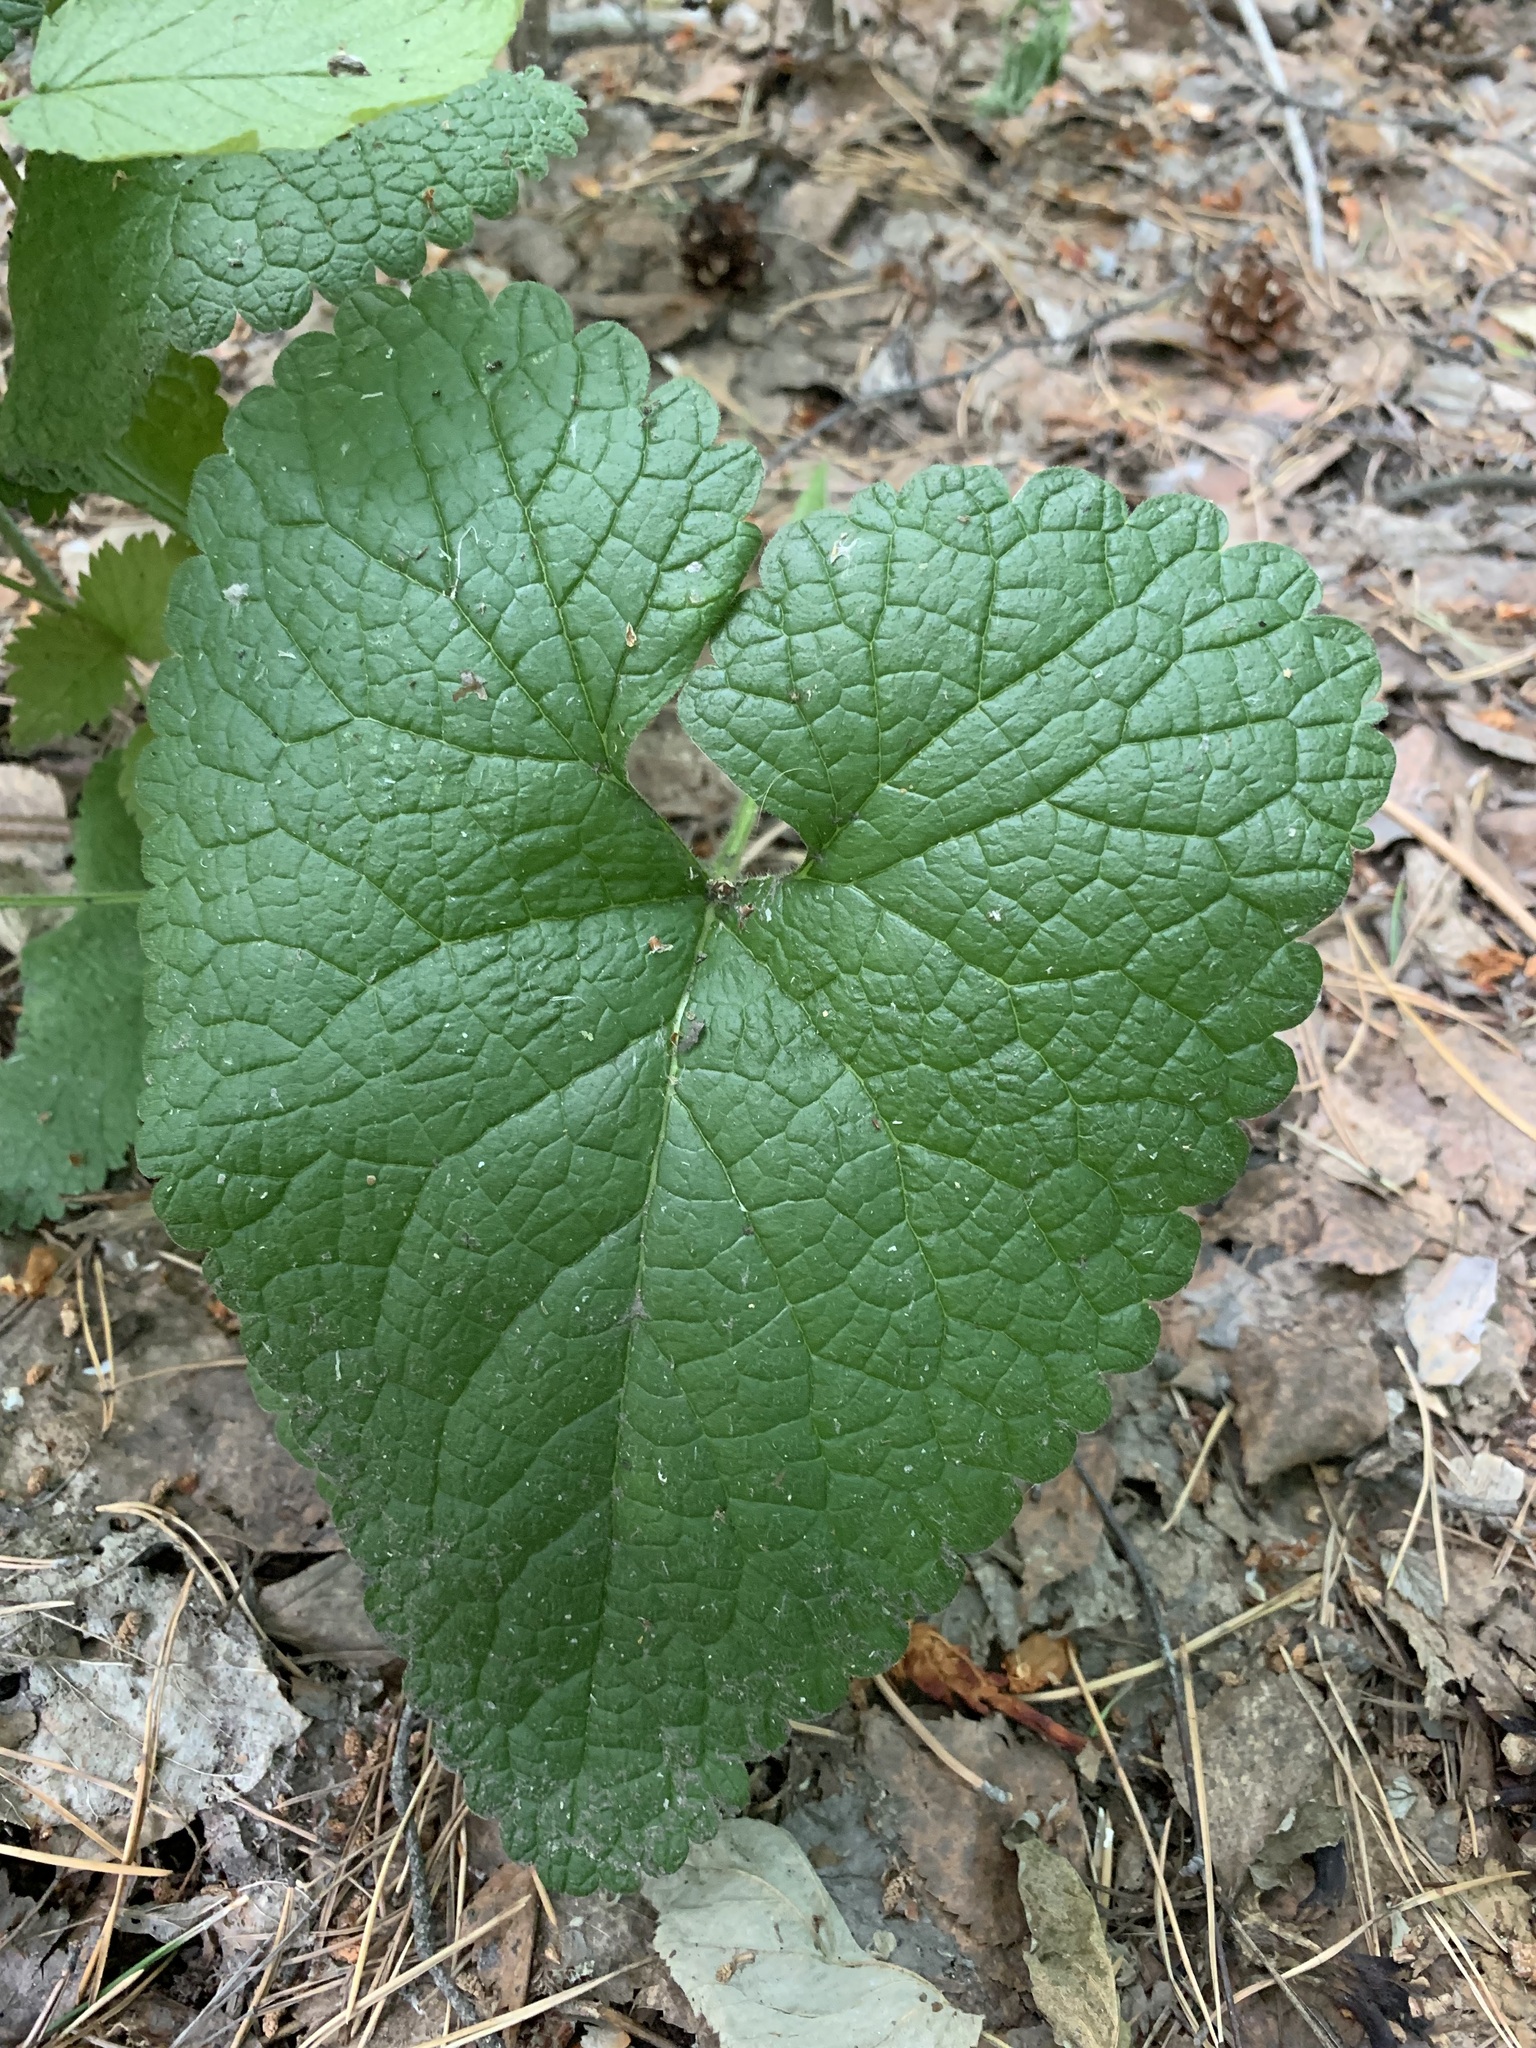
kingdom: Plantae
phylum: Tracheophyta
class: Magnoliopsida
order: Lamiales
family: Lamiaceae
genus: Phlomoides
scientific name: Phlomoides tuberosa
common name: Tuberous jerusalem sage
